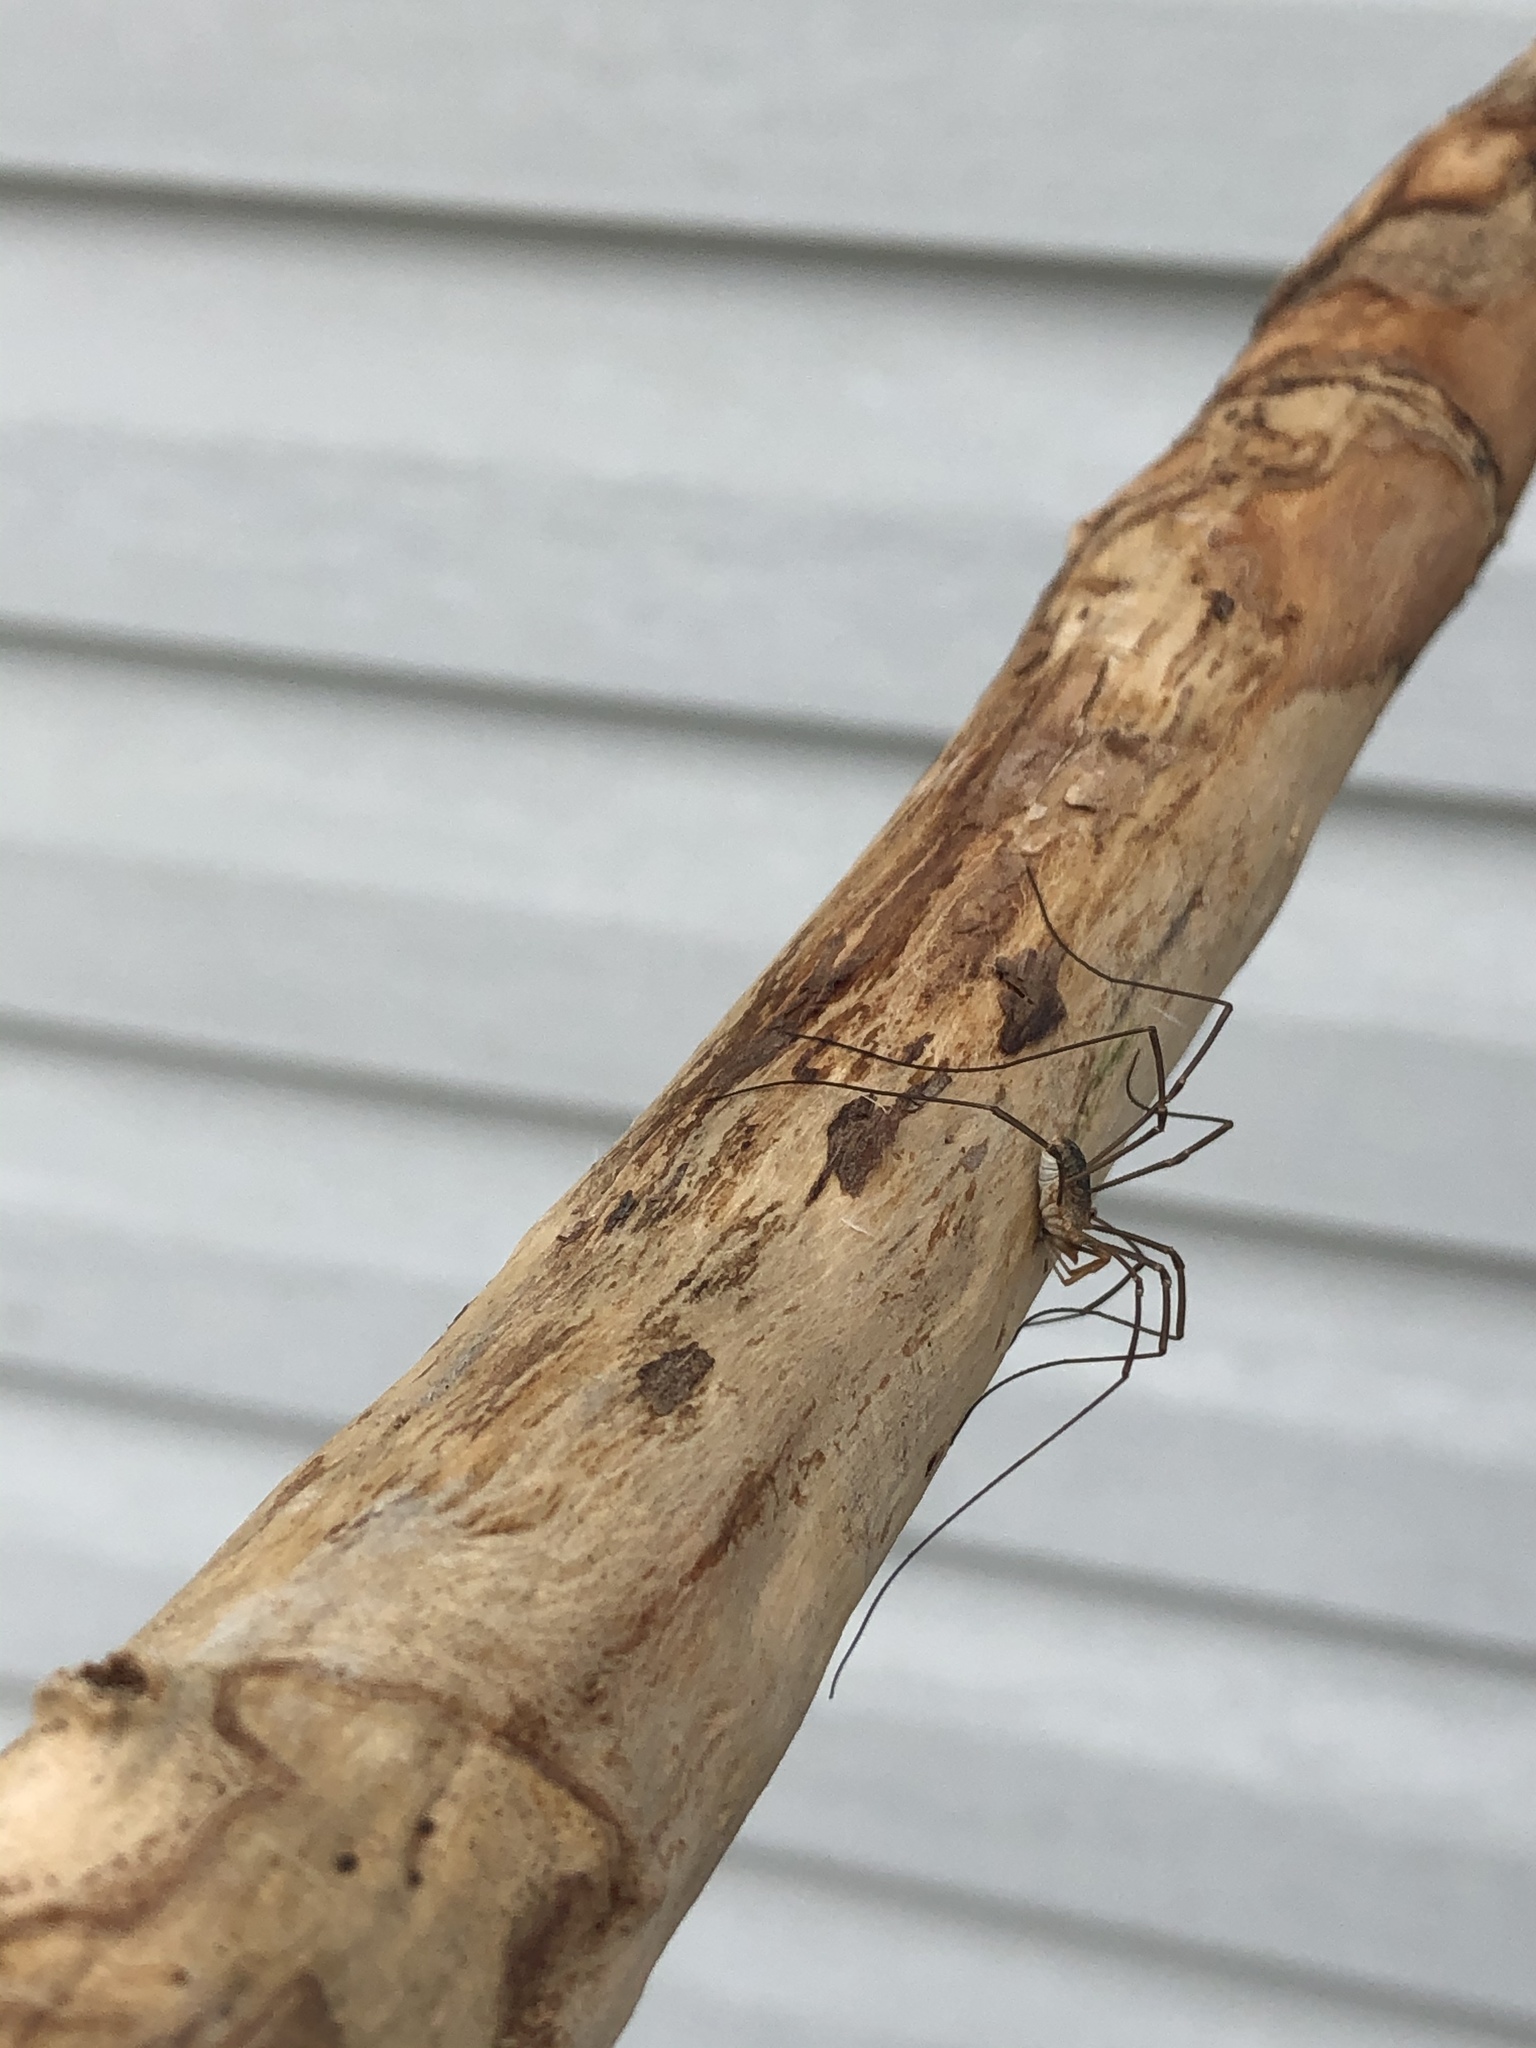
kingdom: Animalia
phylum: Arthropoda
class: Arachnida
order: Opiliones
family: Phalangiidae
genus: Phalangium
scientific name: Phalangium opilio
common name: Daddy longleg
